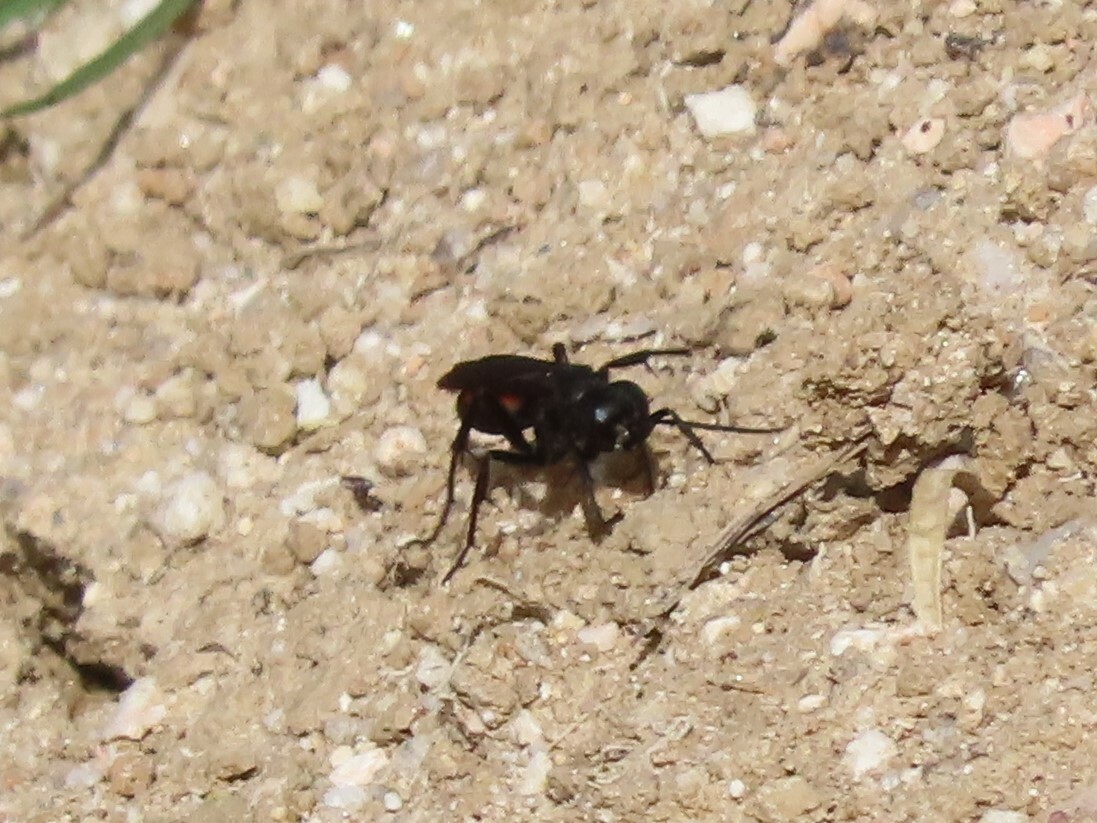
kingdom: Animalia
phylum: Arthropoda
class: Insecta
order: Hymenoptera
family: Pompilidae
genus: Anoplius
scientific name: Anoplius viaticus
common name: Black banded spider wasp
